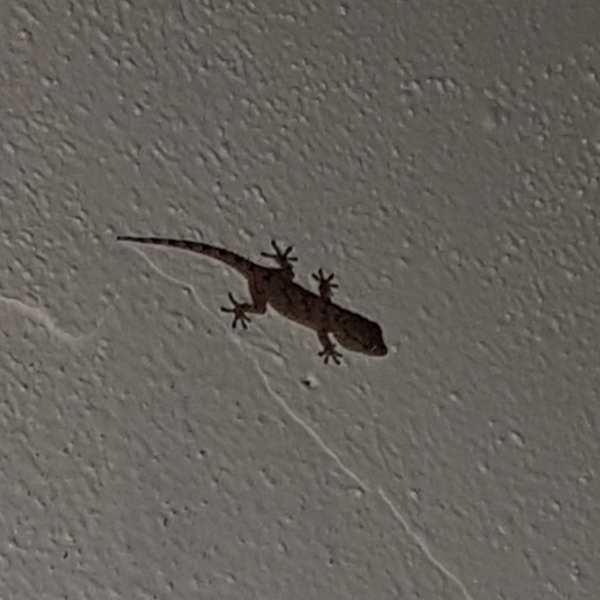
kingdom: Animalia
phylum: Chordata
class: Squamata
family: Phyllodactylidae
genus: Tarentola
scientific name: Tarentola mauritanica
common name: Moorish gecko
